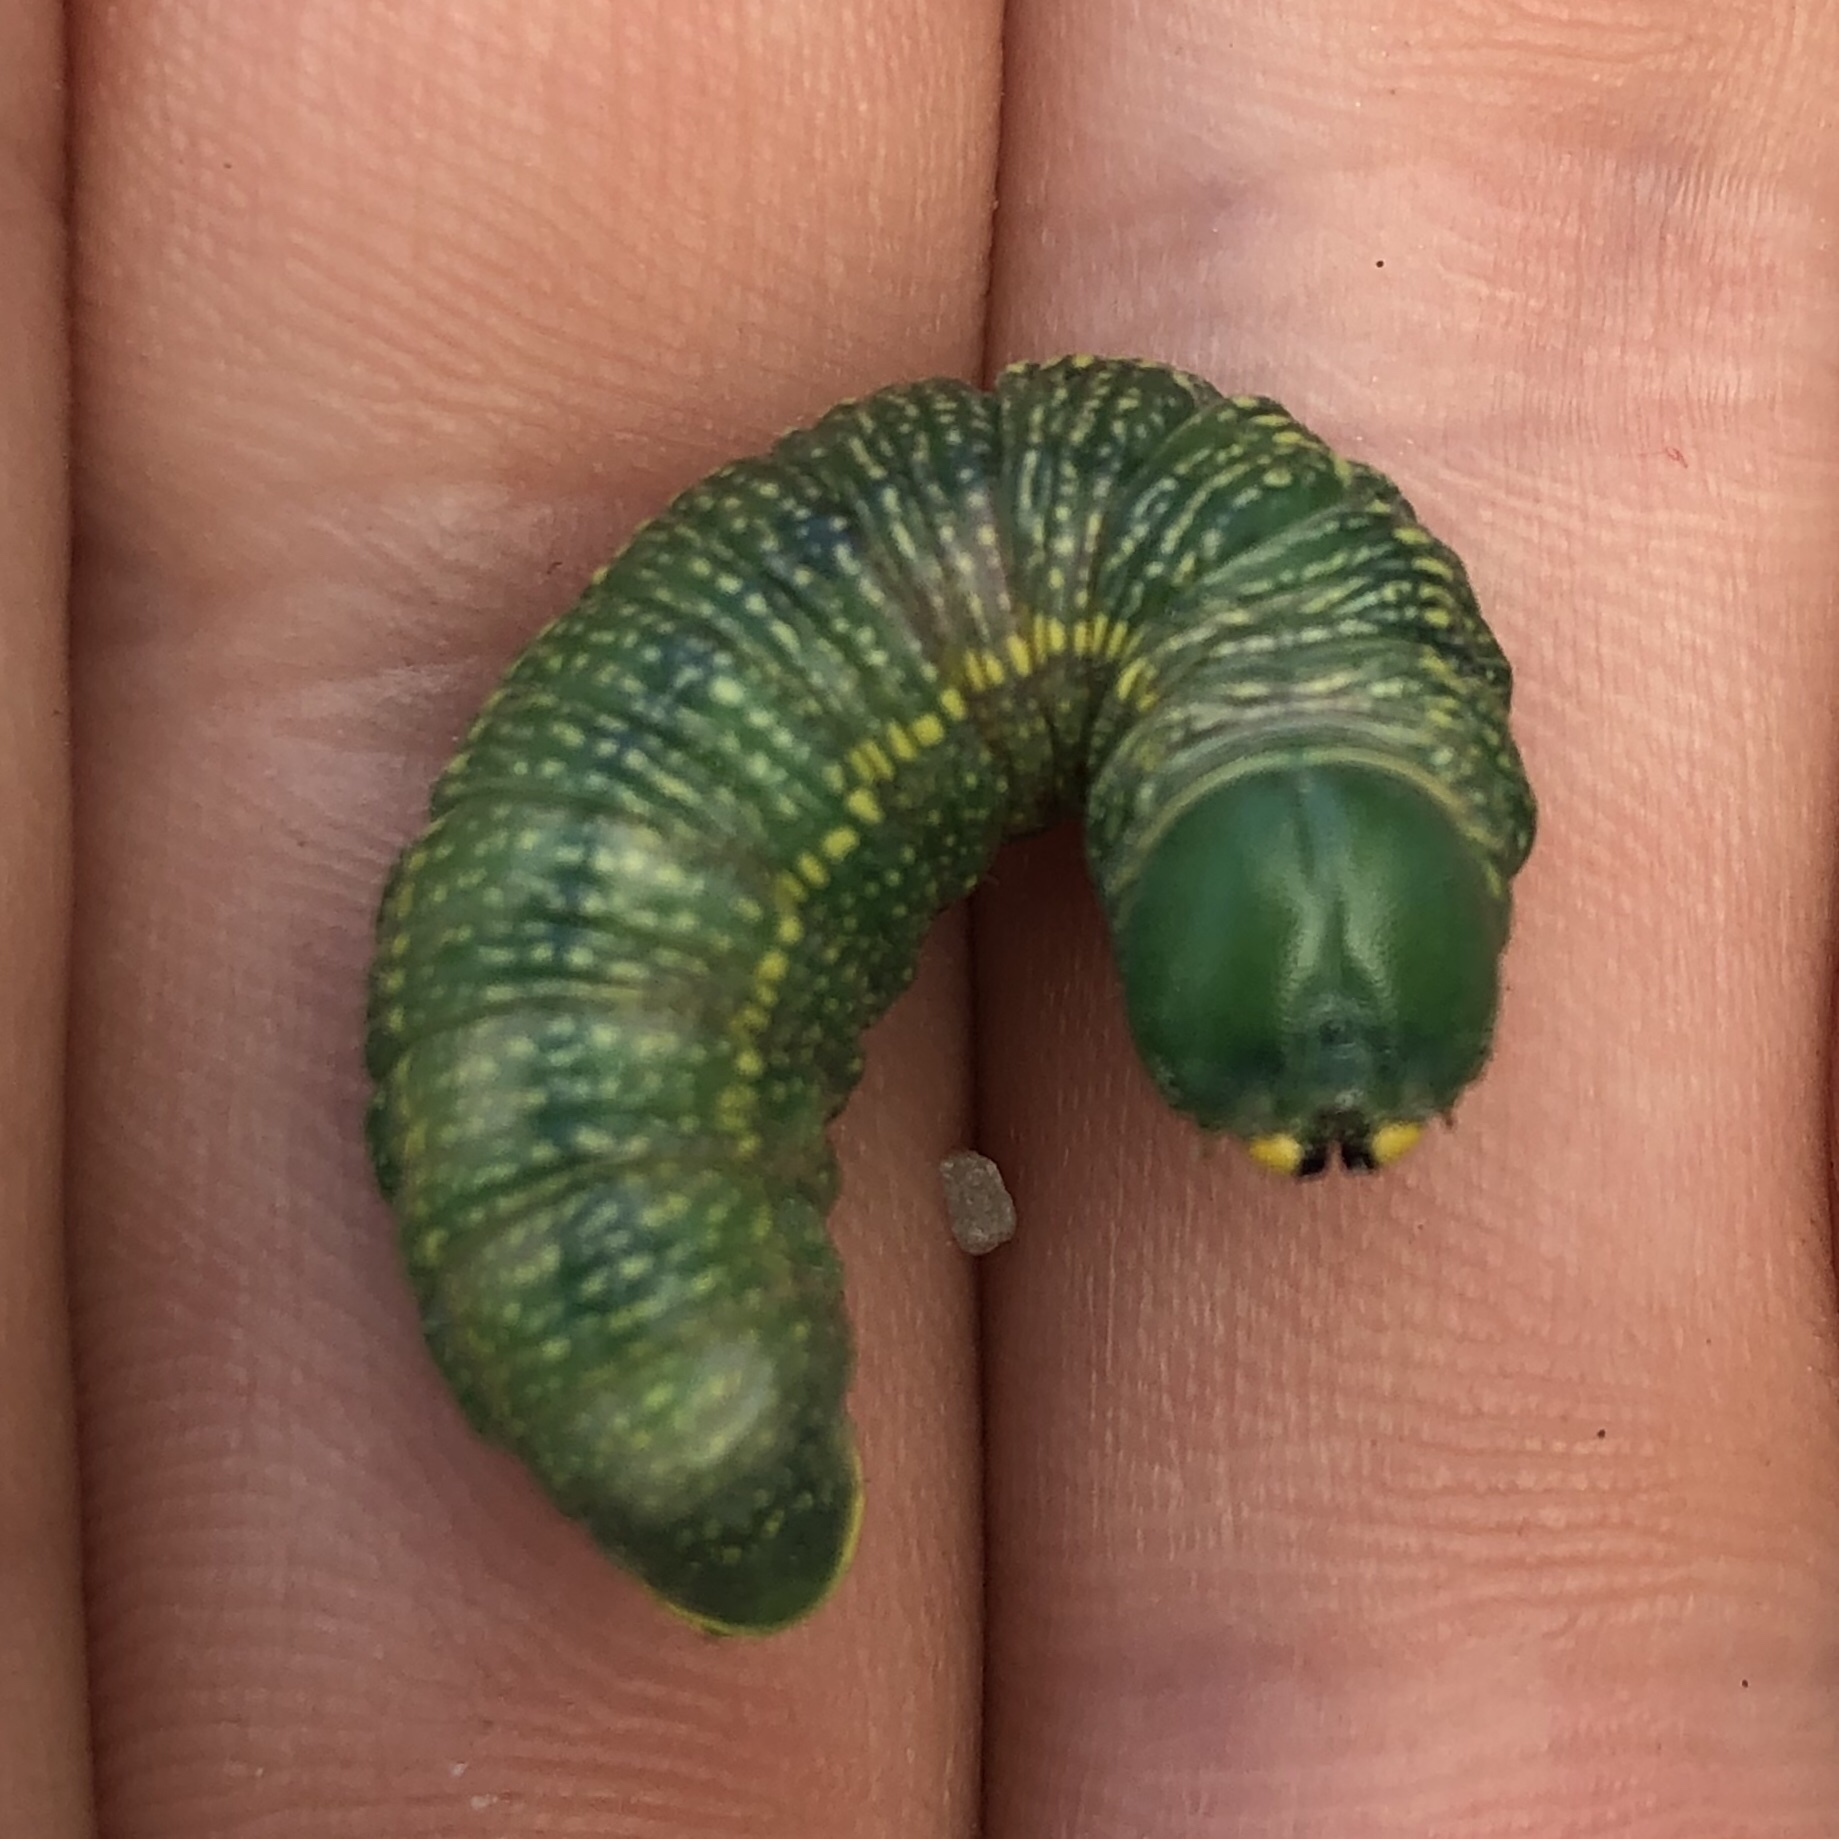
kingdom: Animalia
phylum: Arthropoda
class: Insecta
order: Lepidoptera
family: Notodontidae
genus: Nadata
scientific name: Nadata gibbosa
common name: White-dotted prominent
